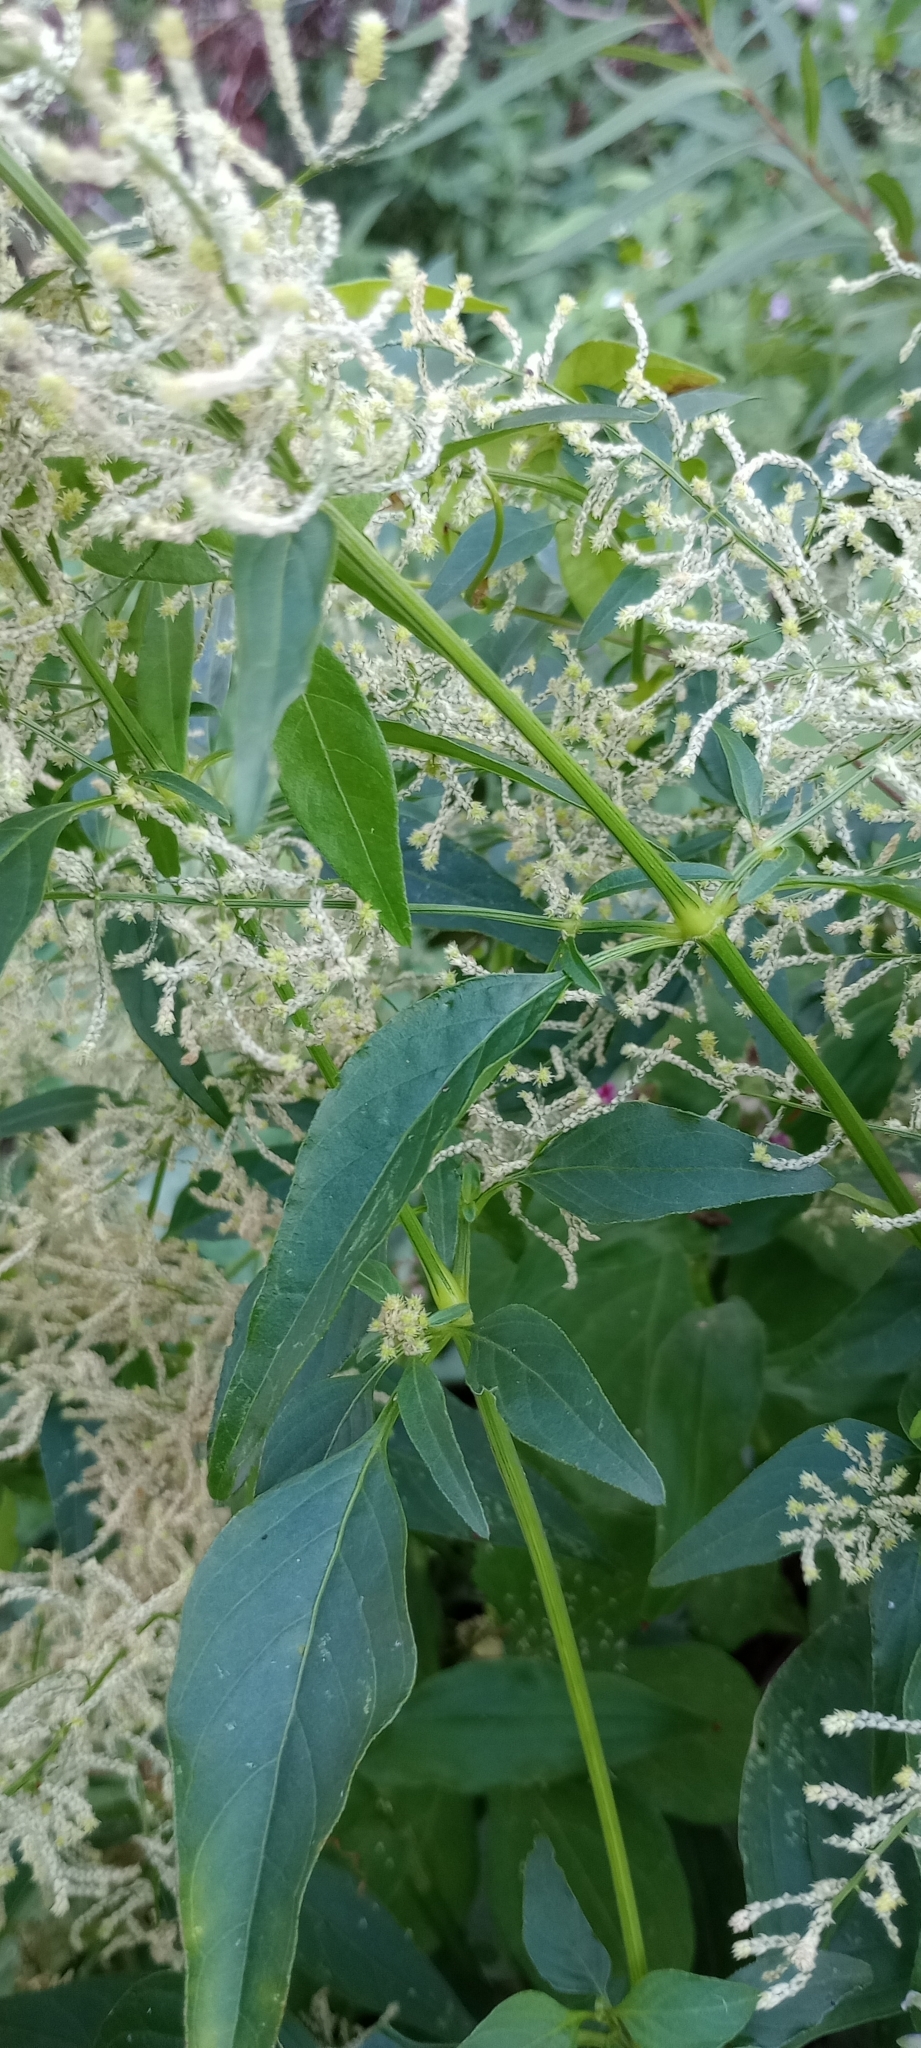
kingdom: Plantae
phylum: Tracheophyta
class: Magnoliopsida
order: Caryophyllales
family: Amaranthaceae
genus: Iresine
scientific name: Iresine diffusa
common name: Juba's-bush
